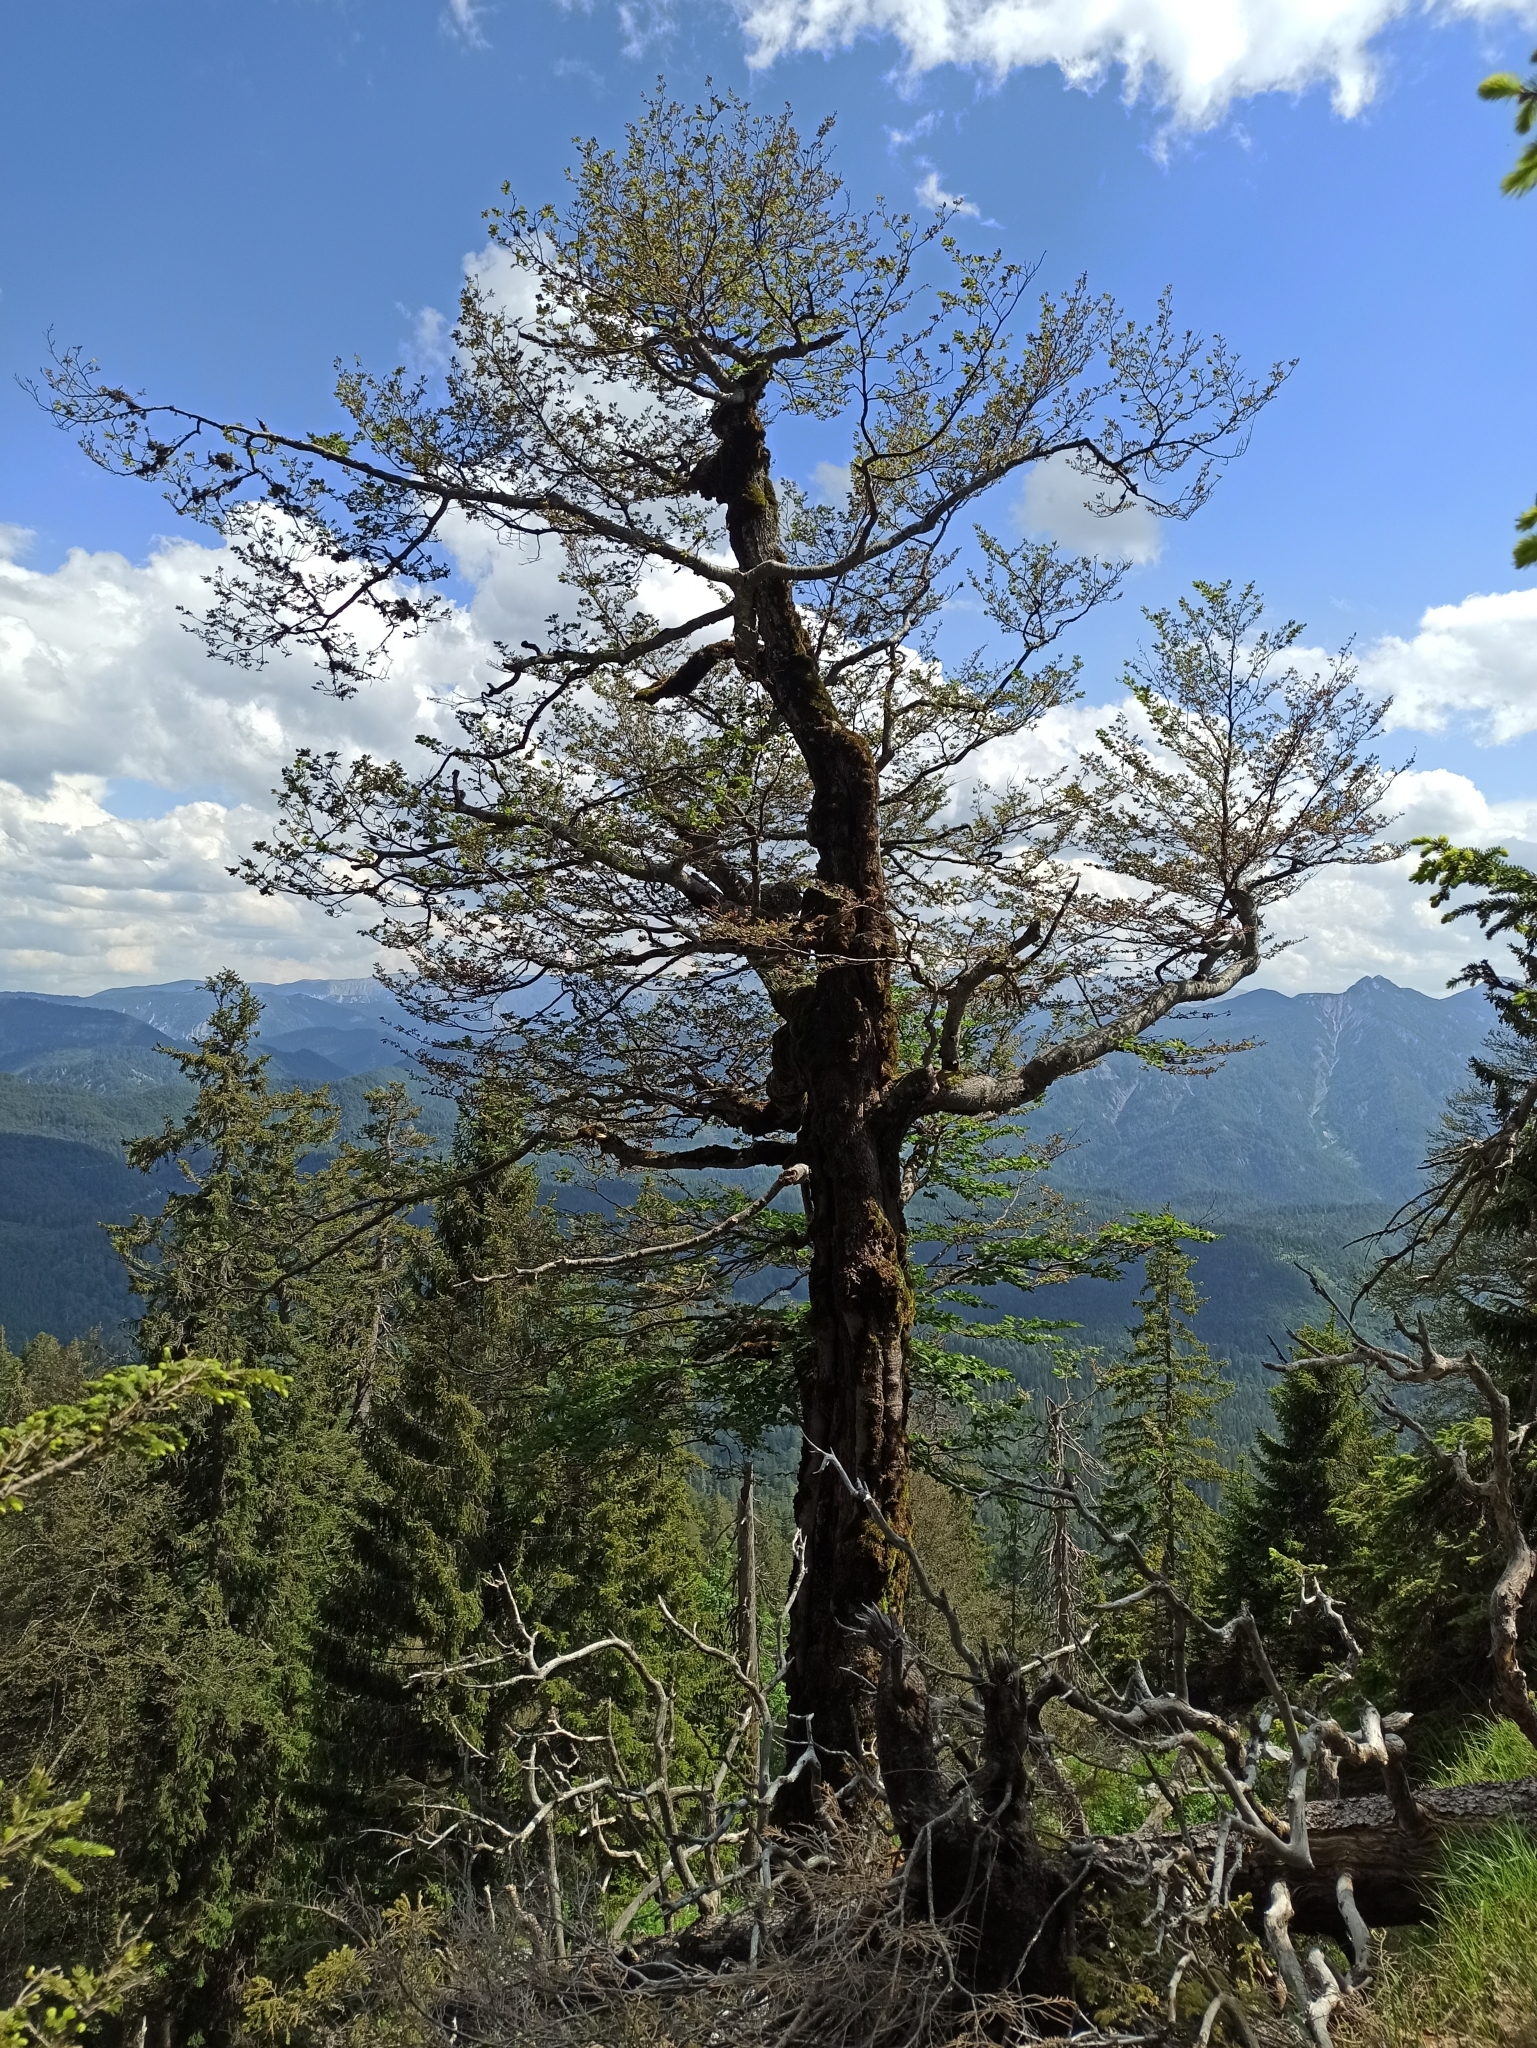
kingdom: Plantae
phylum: Tracheophyta
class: Magnoliopsida
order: Fagales
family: Fagaceae
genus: Fagus
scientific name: Fagus sylvatica
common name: Beech
